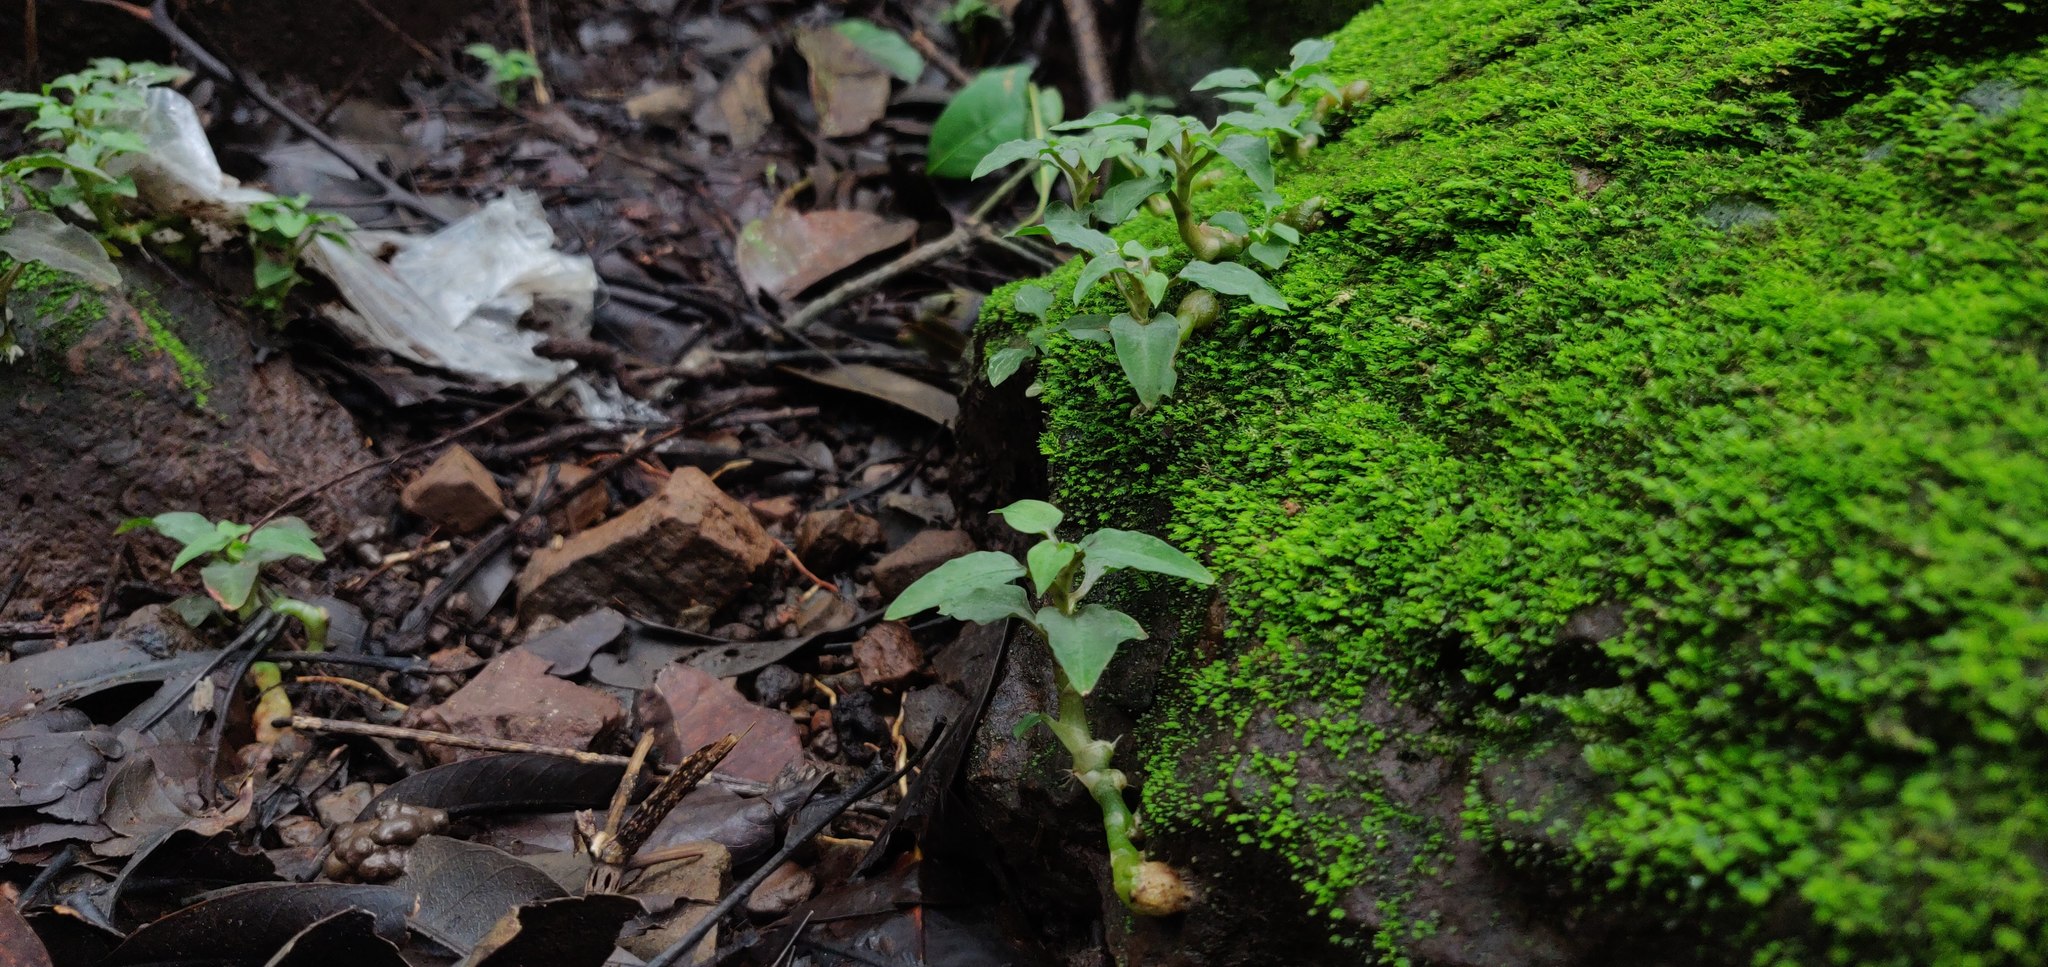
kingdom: Plantae
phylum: Tracheophyta
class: Liliopsida
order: Asparagales
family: Orchidaceae
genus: Cheirostylis
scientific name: Cheirostylis parvifolia
